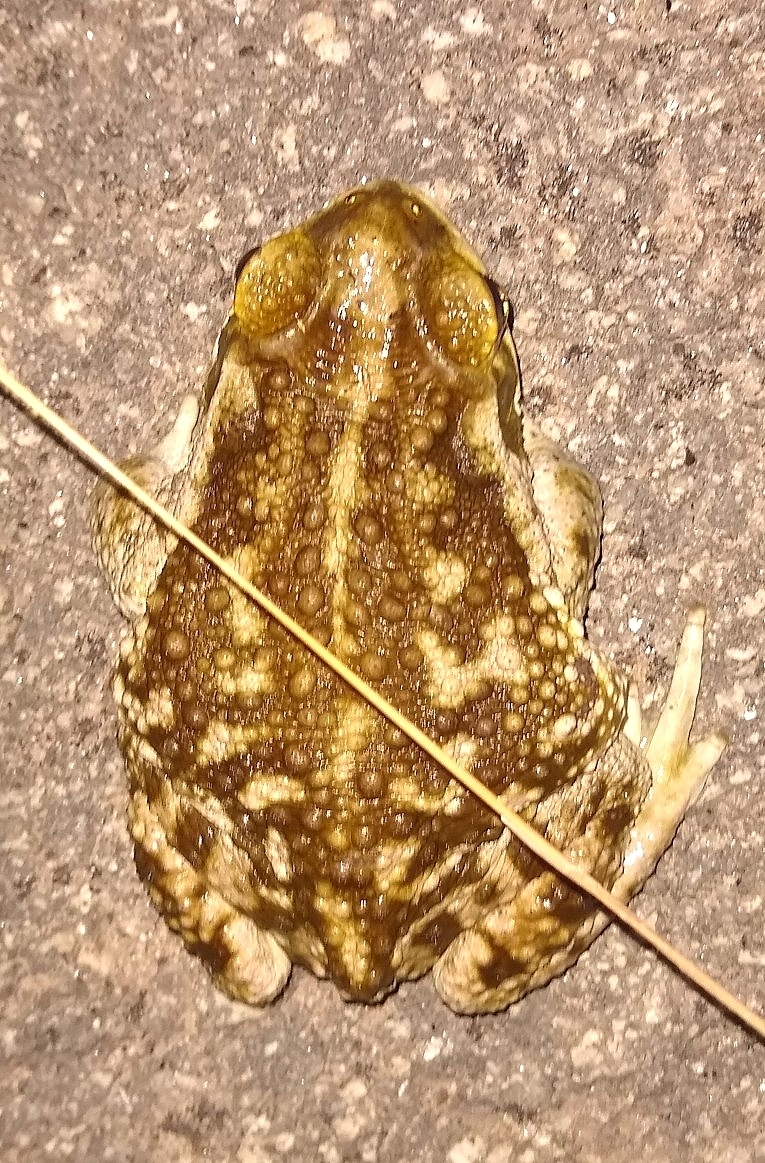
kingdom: Animalia
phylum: Chordata
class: Amphibia
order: Anura
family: Bufonidae
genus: Rhinella
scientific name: Rhinella arenarum
